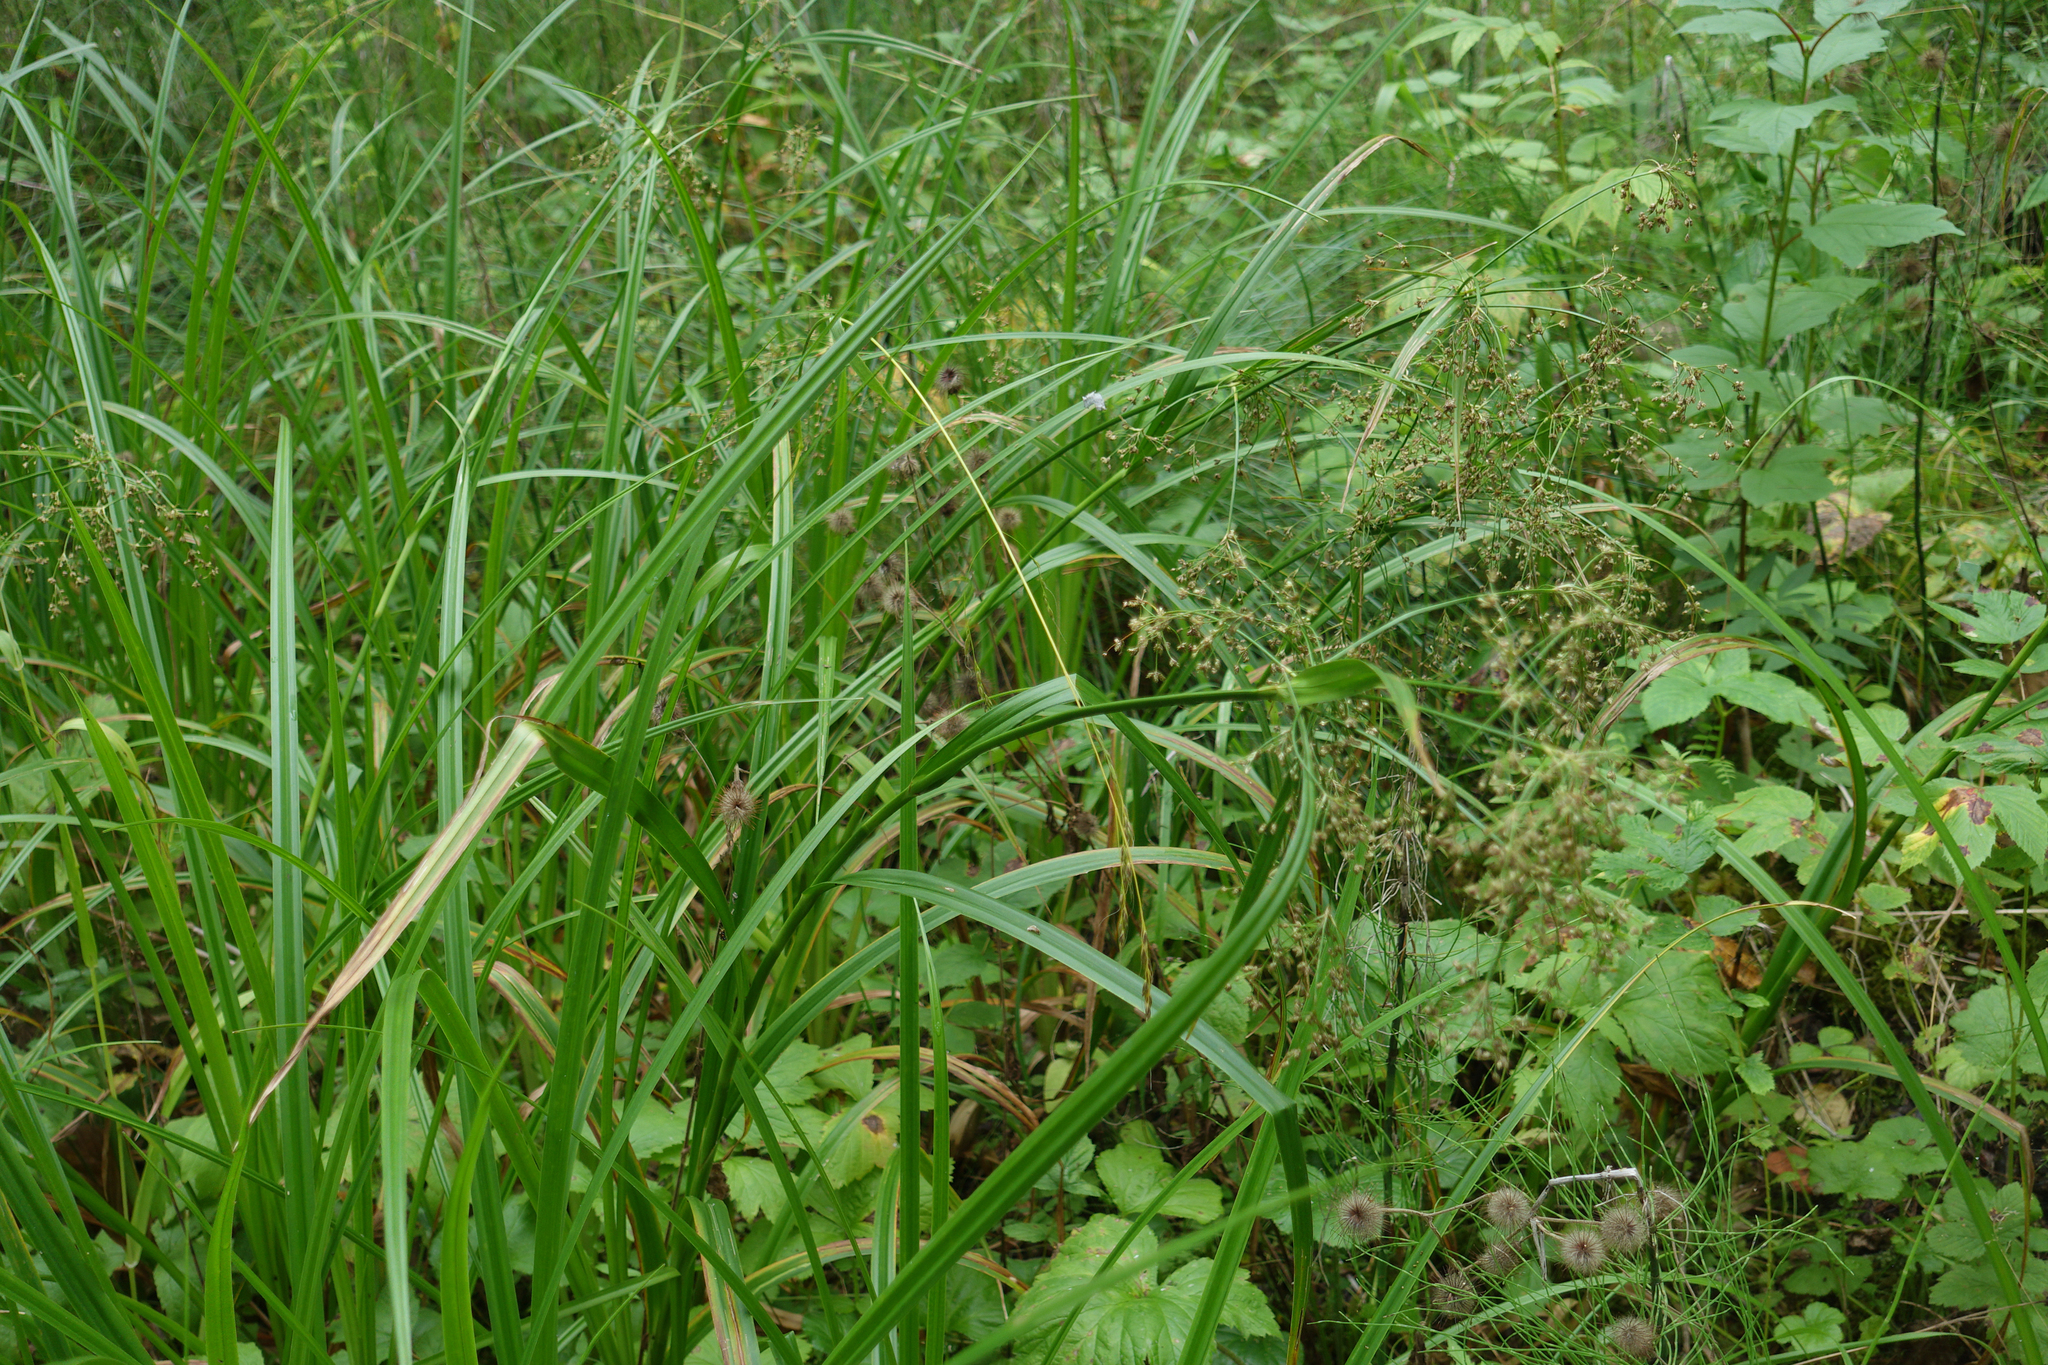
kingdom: Plantae
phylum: Tracheophyta
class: Liliopsida
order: Poales
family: Cyperaceae
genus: Scirpus
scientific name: Scirpus sylvaticus
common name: Wood club-rush
